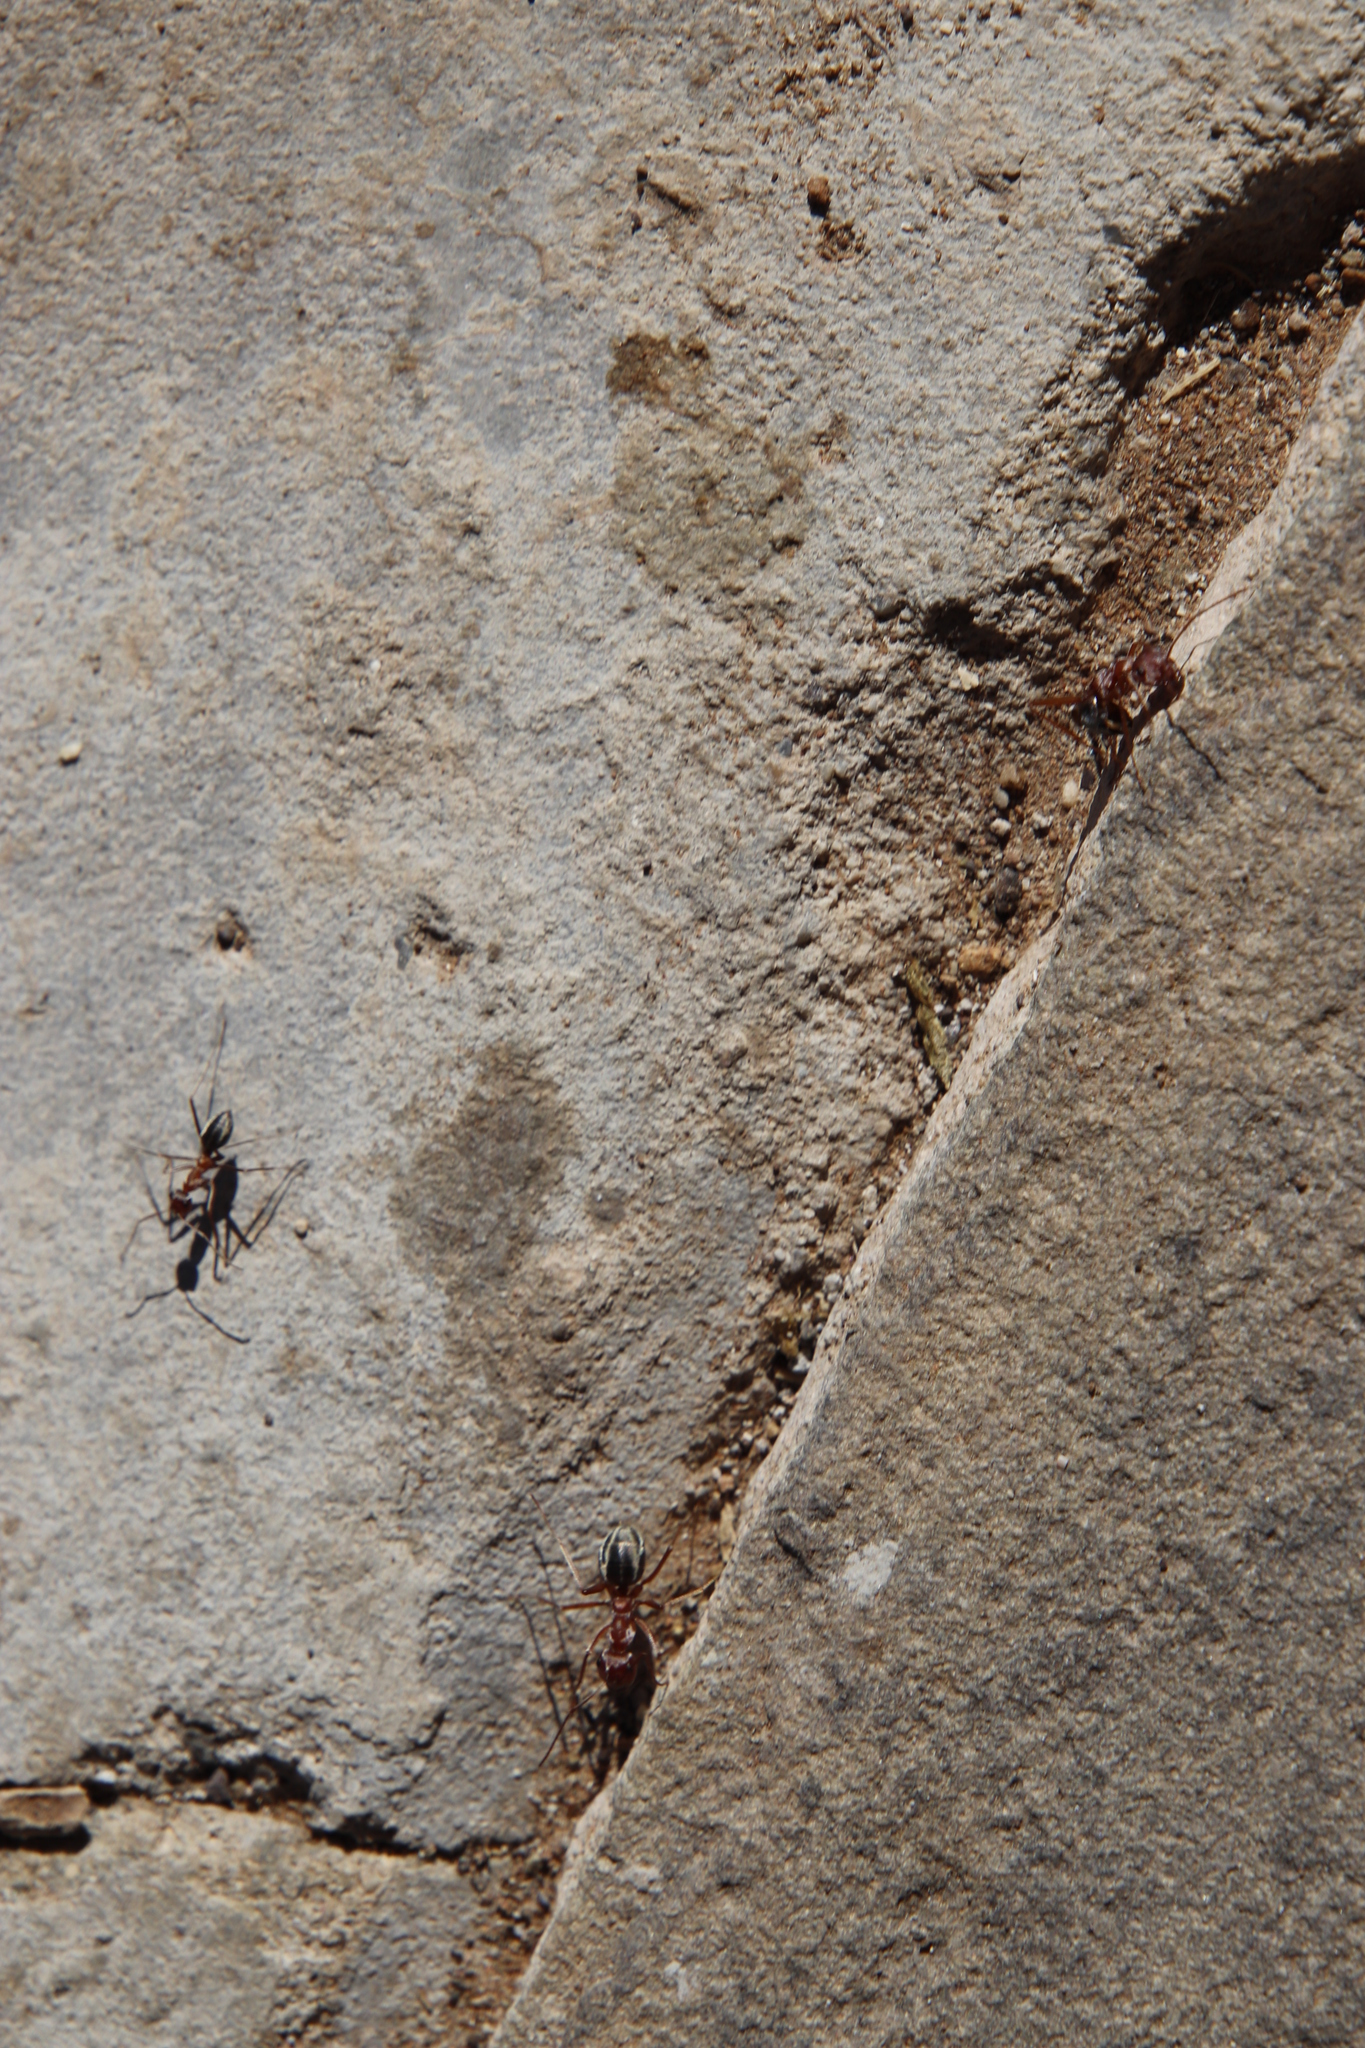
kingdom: Animalia
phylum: Arthropoda
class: Insecta
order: Hymenoptera
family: Formicidae
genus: Anoplolepis
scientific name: Anoplolepis custodiens
